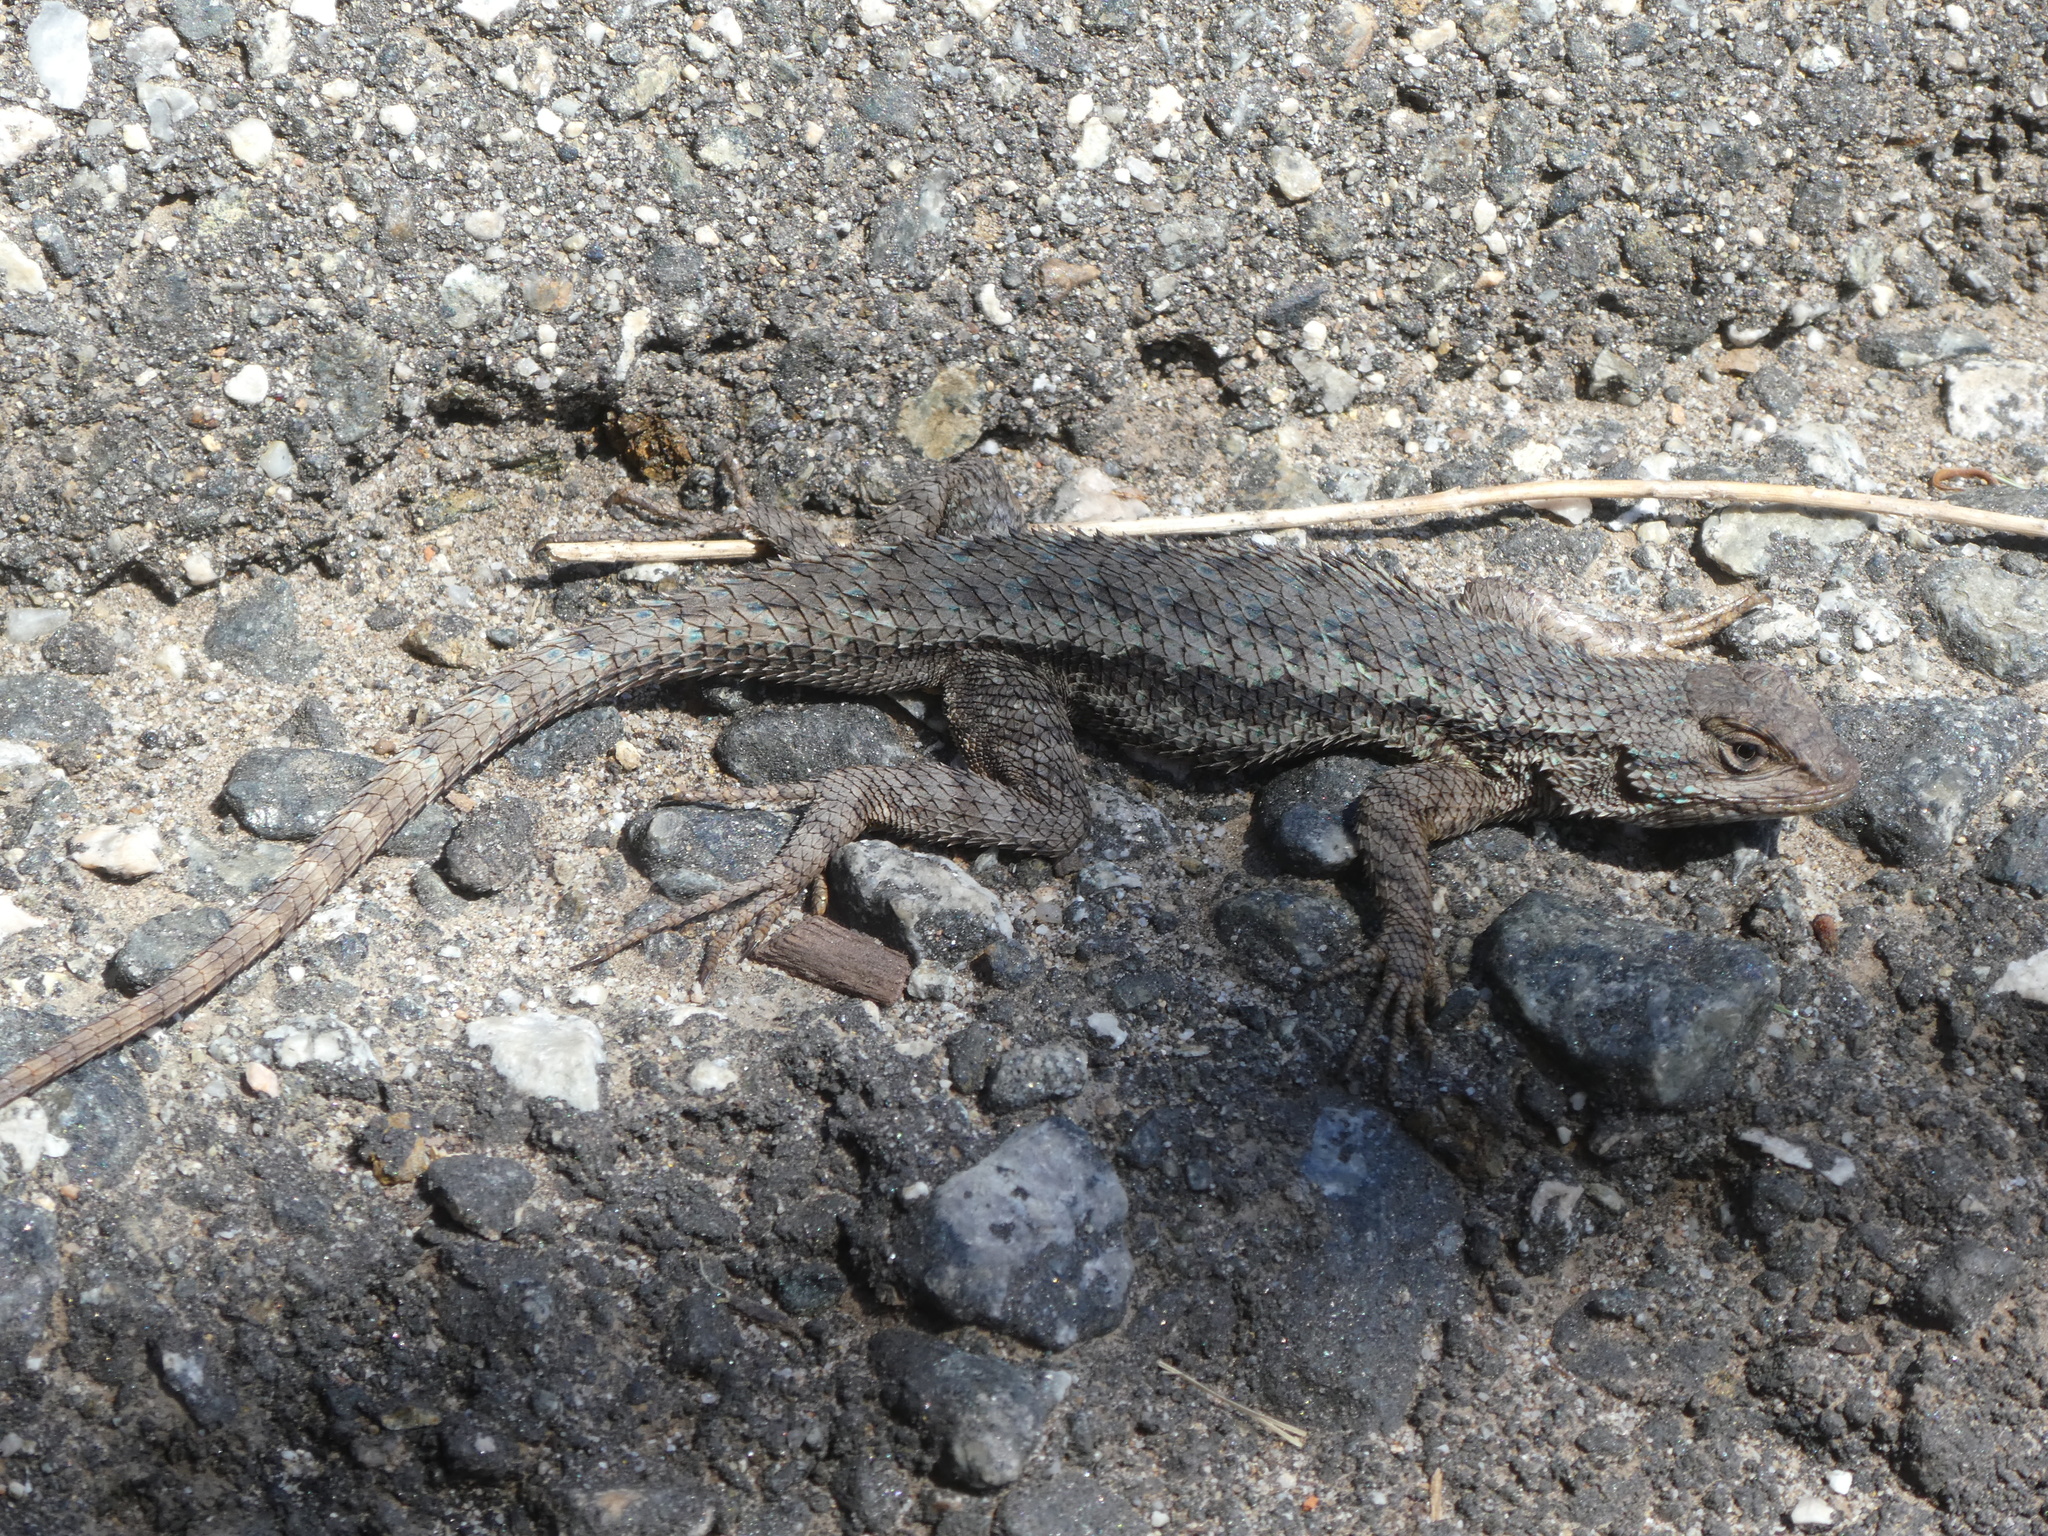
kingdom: Animalia
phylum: Chordata
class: Squamata
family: Phrynosomatidae
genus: Sceloporus
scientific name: Sceloporus occidentalis
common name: Western fence lizard
